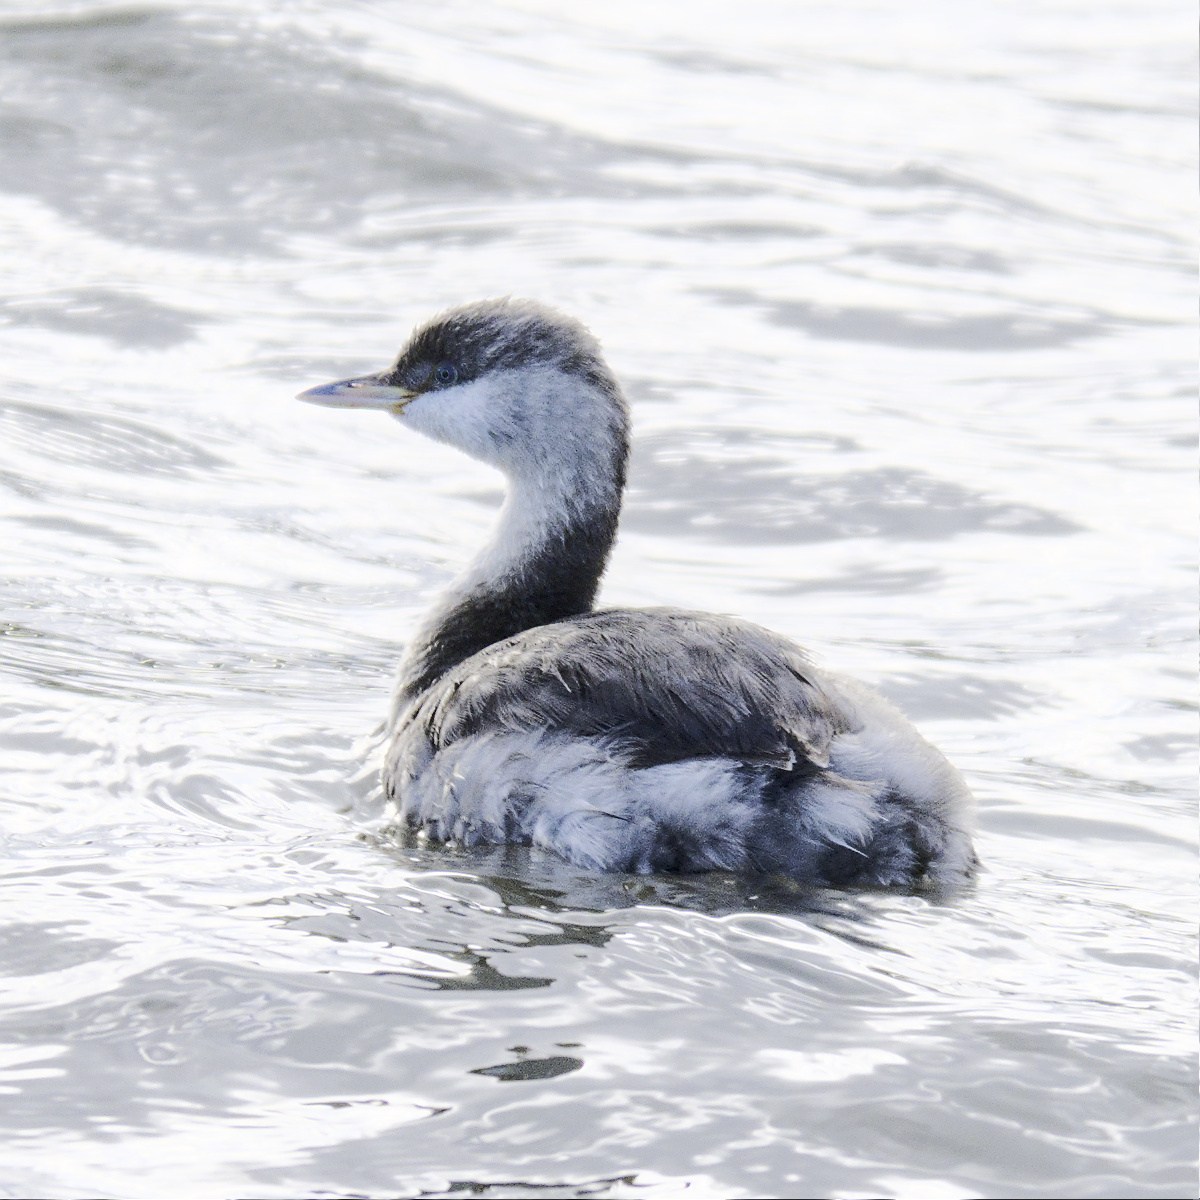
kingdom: Animalia
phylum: Chordata
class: Aves
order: Podicipediformes
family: Podicipedidae
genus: Poliocephalus
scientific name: Poliocephalus poliocephalus
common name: Hoary-headed grebe
